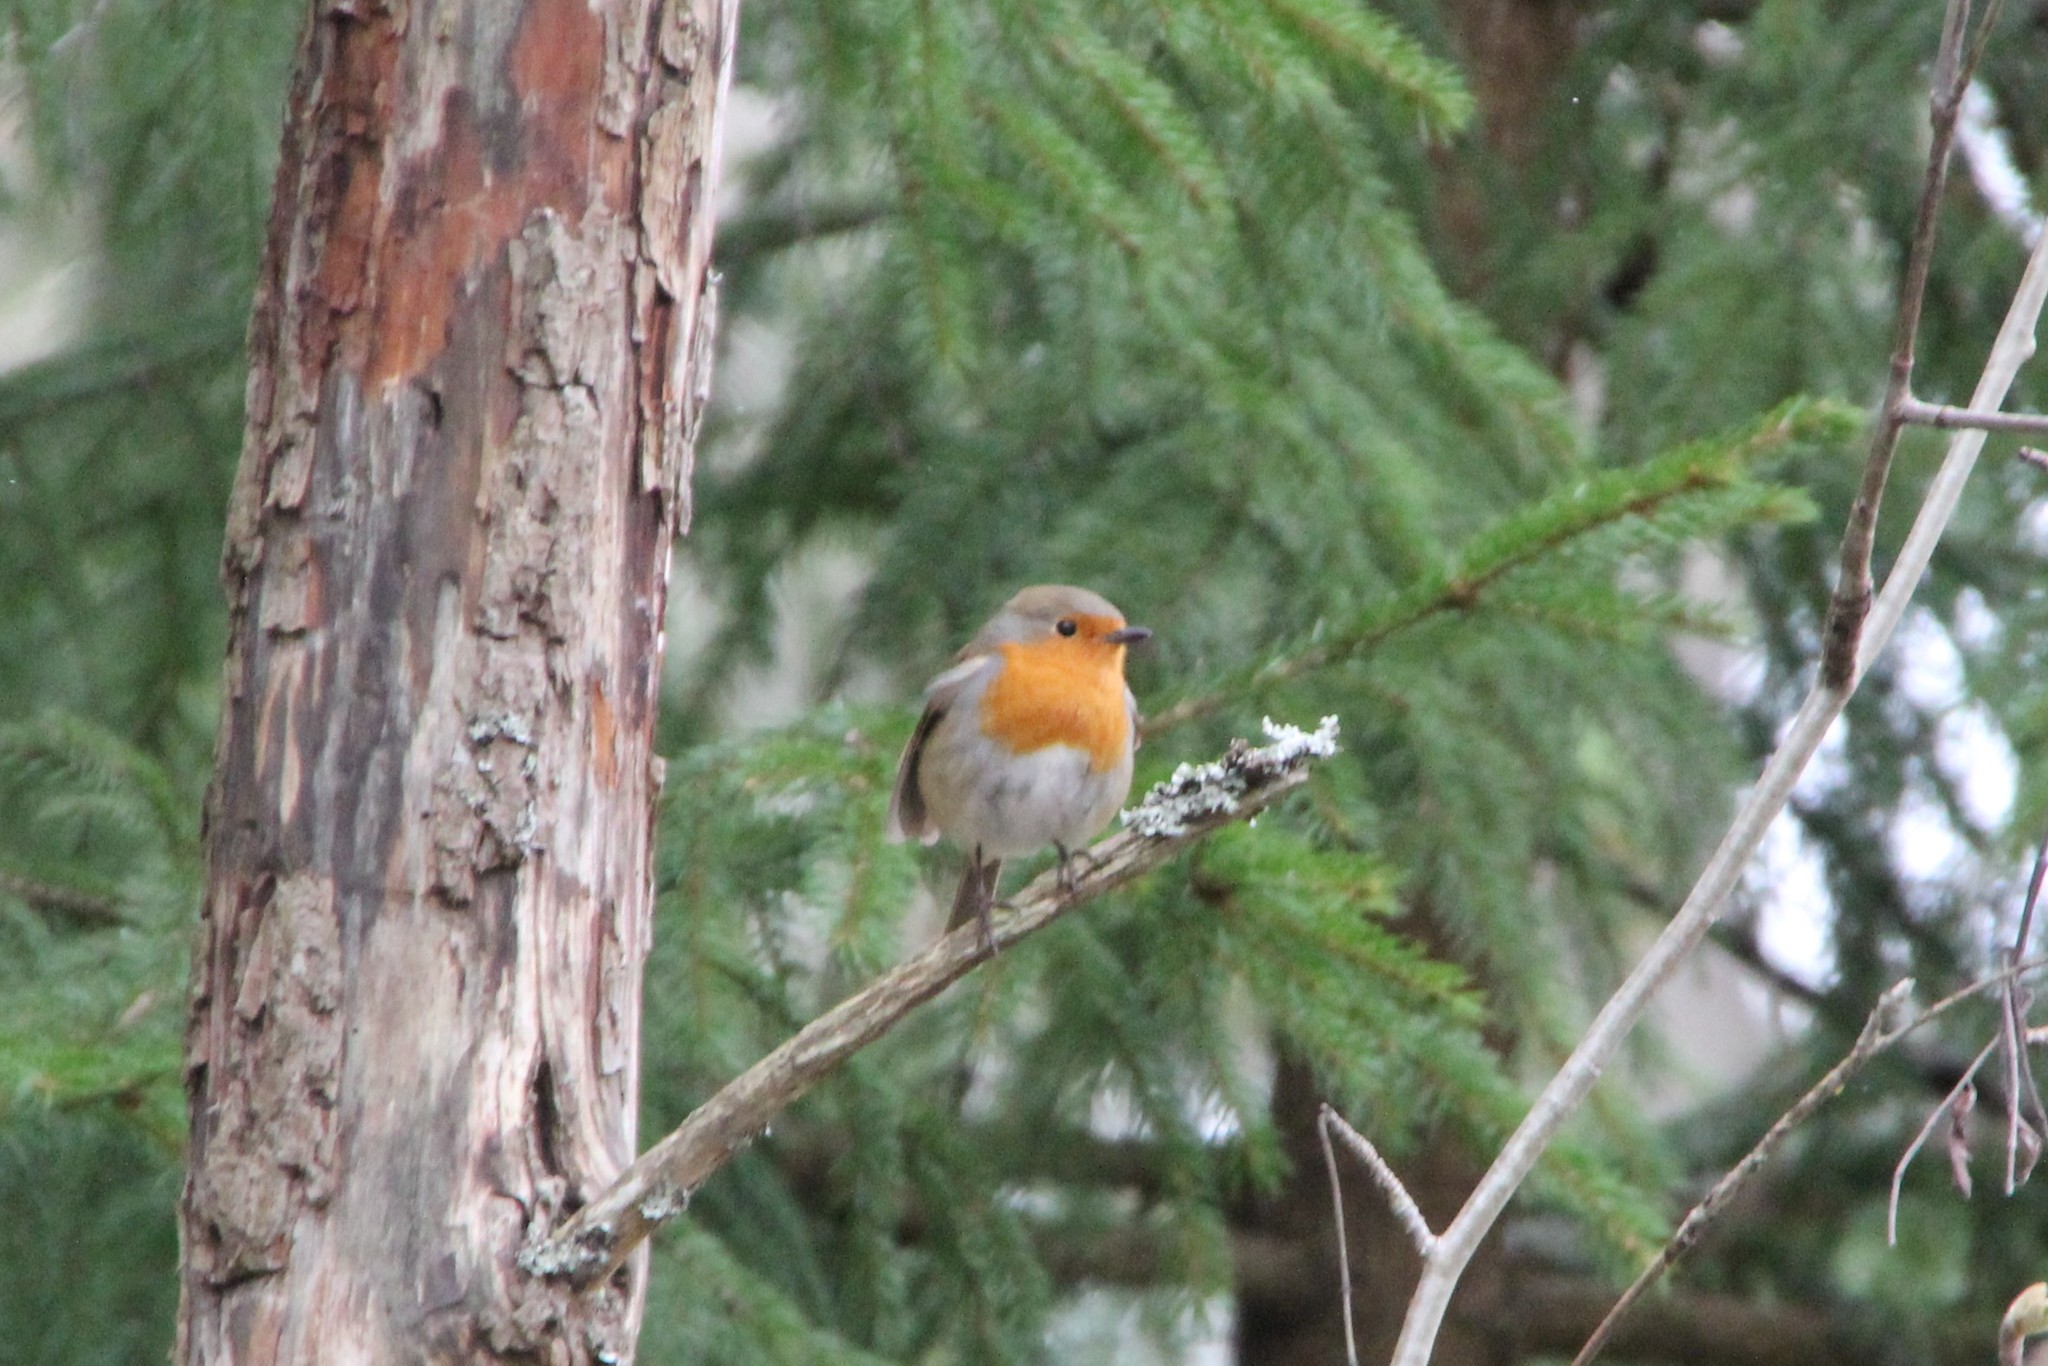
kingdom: Animalia
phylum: Chordata
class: Aves
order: Passeriformes
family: Muscicapidae
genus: Erithacus
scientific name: Erithacus rubecula
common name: European robin
